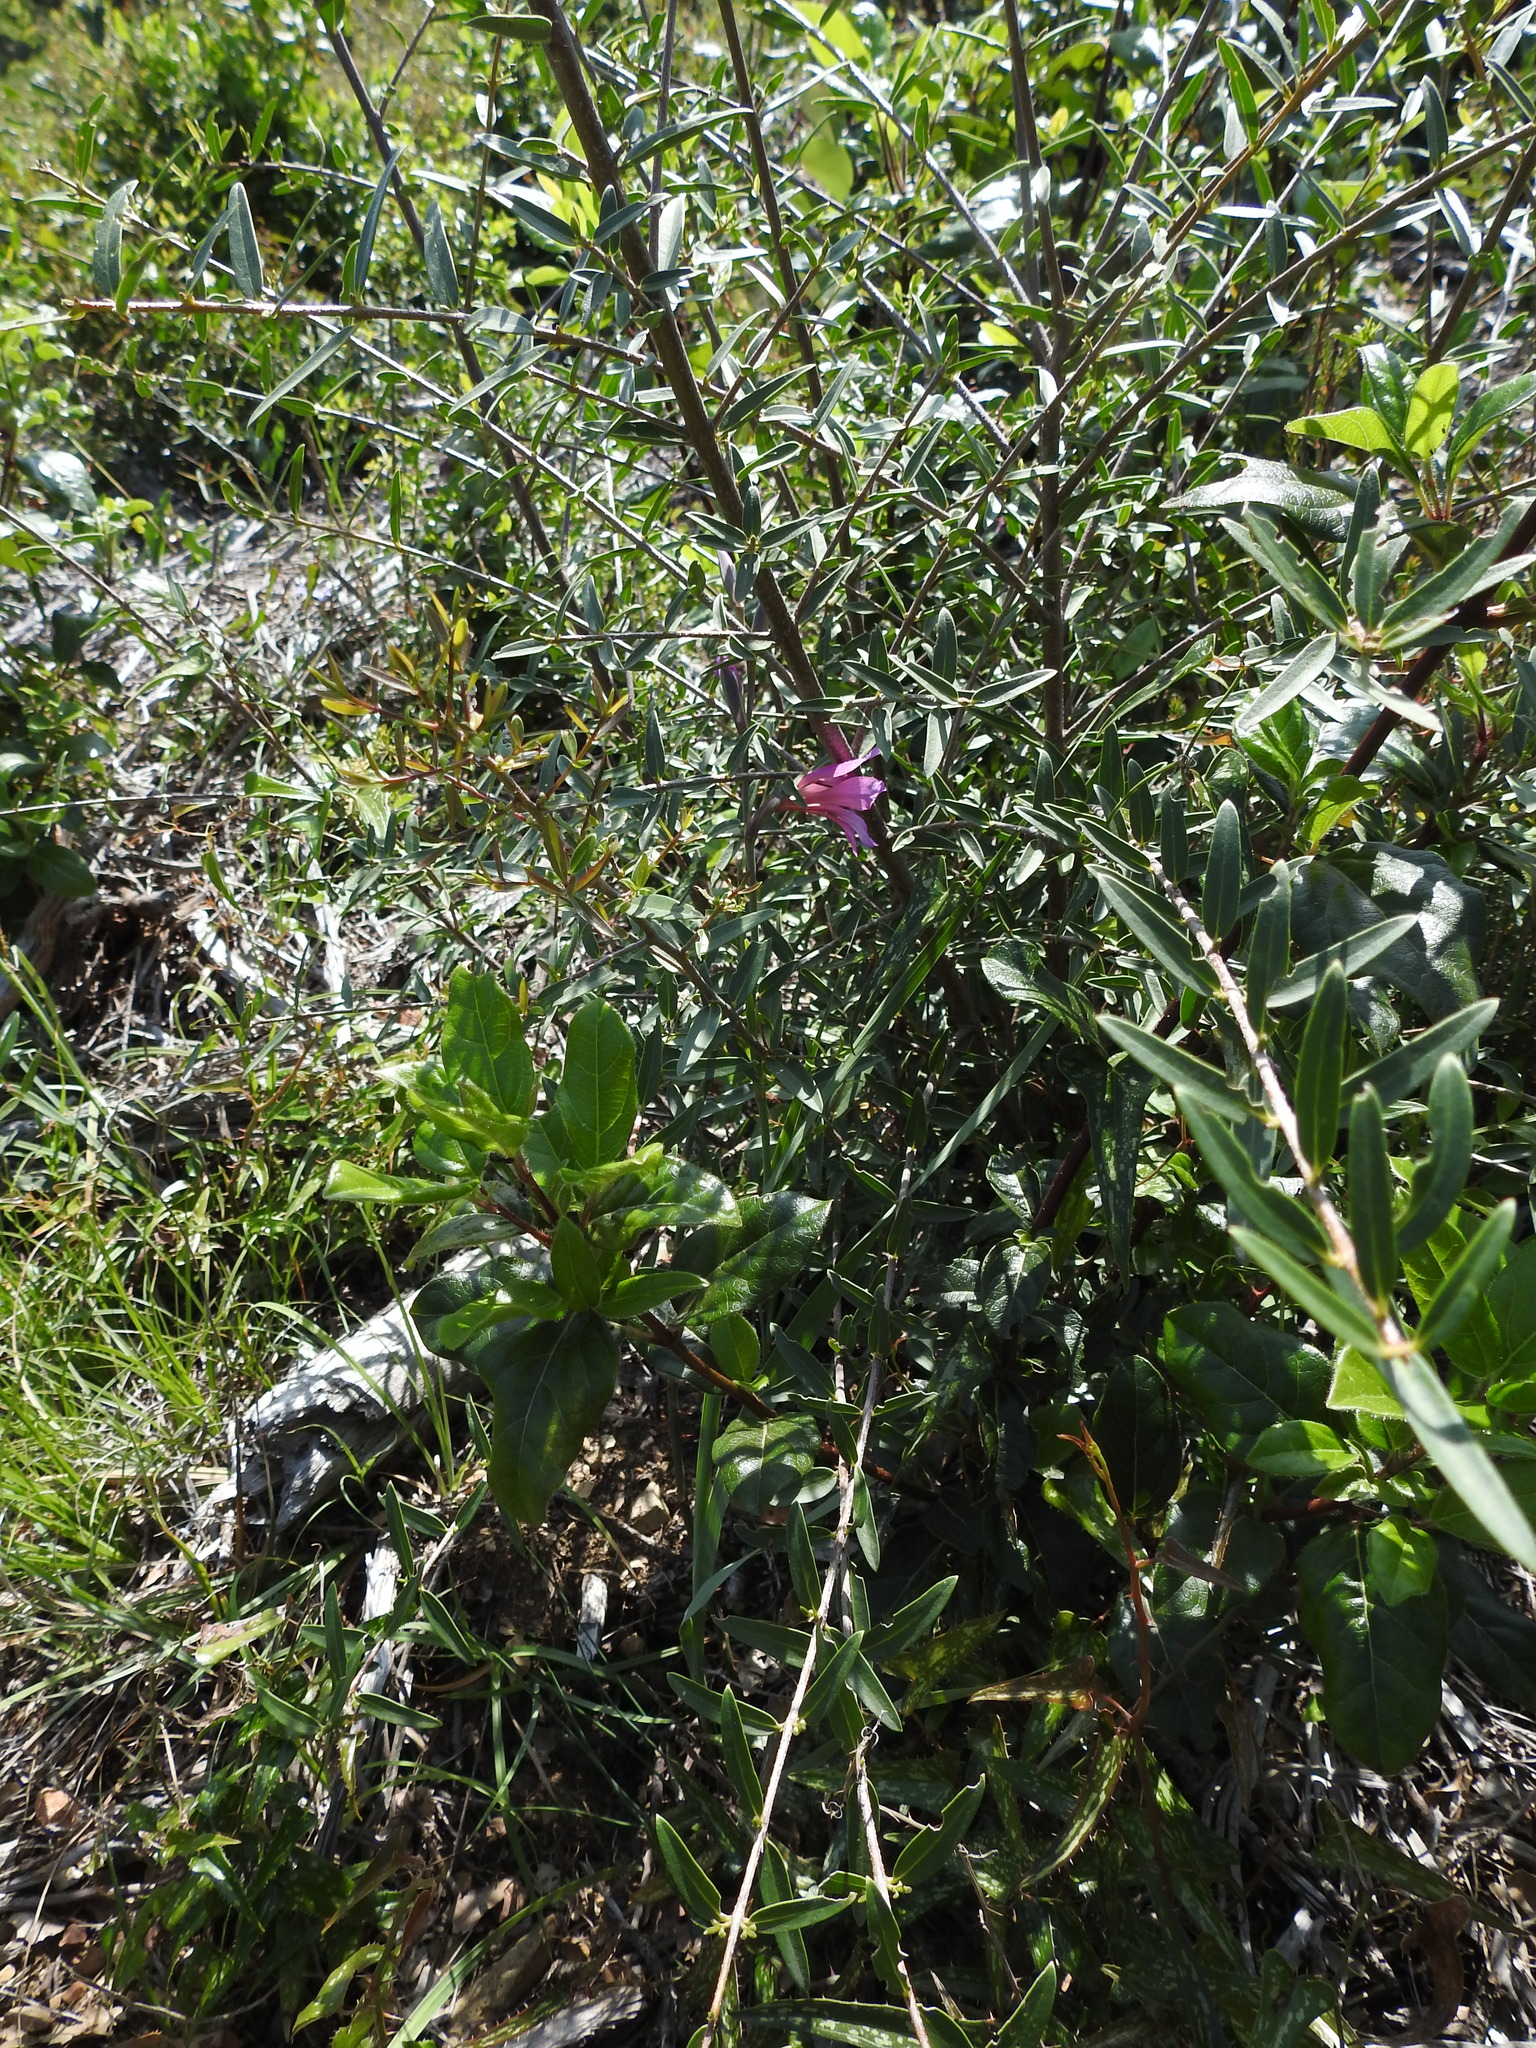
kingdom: Plantae
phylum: Tracheophyta
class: Liliopsida
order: Asparagales
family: Iridaceae
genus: Gladiolus
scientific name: Gladiolus dubius
